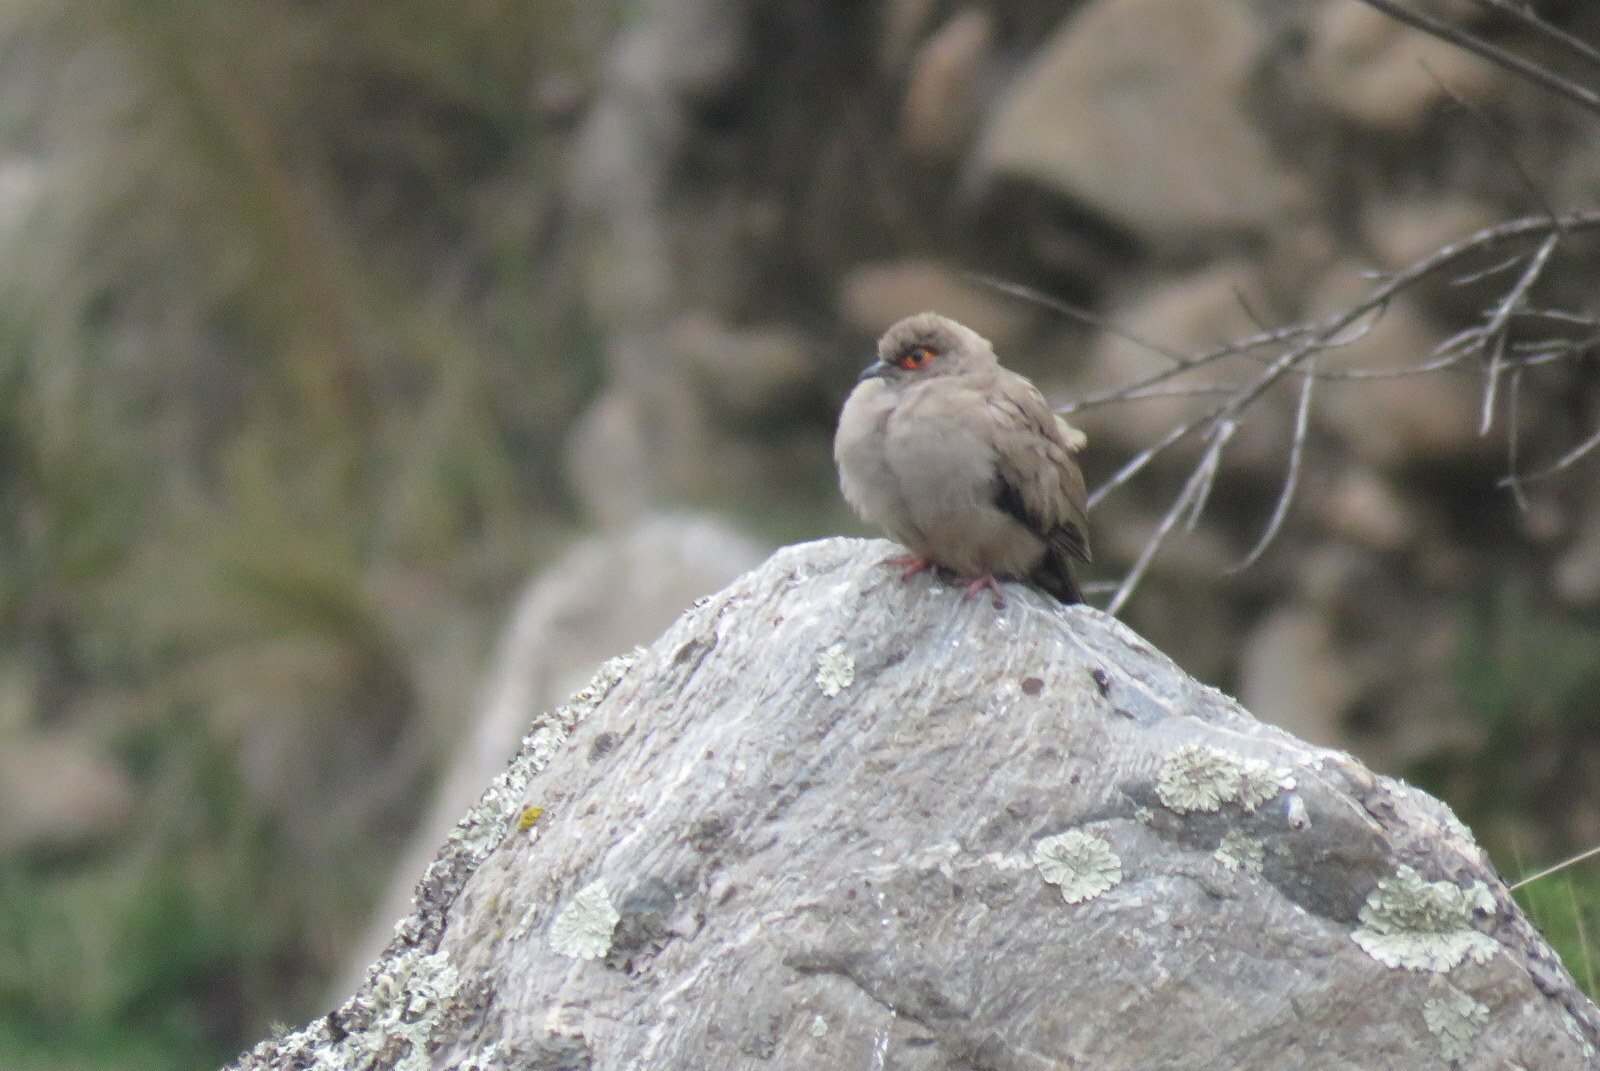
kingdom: Animalia
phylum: Chordata
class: Aves
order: Columbiformes
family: Columbidae
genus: Metriopelia
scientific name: Metriopelia morenoi
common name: Moreno's ground dove
